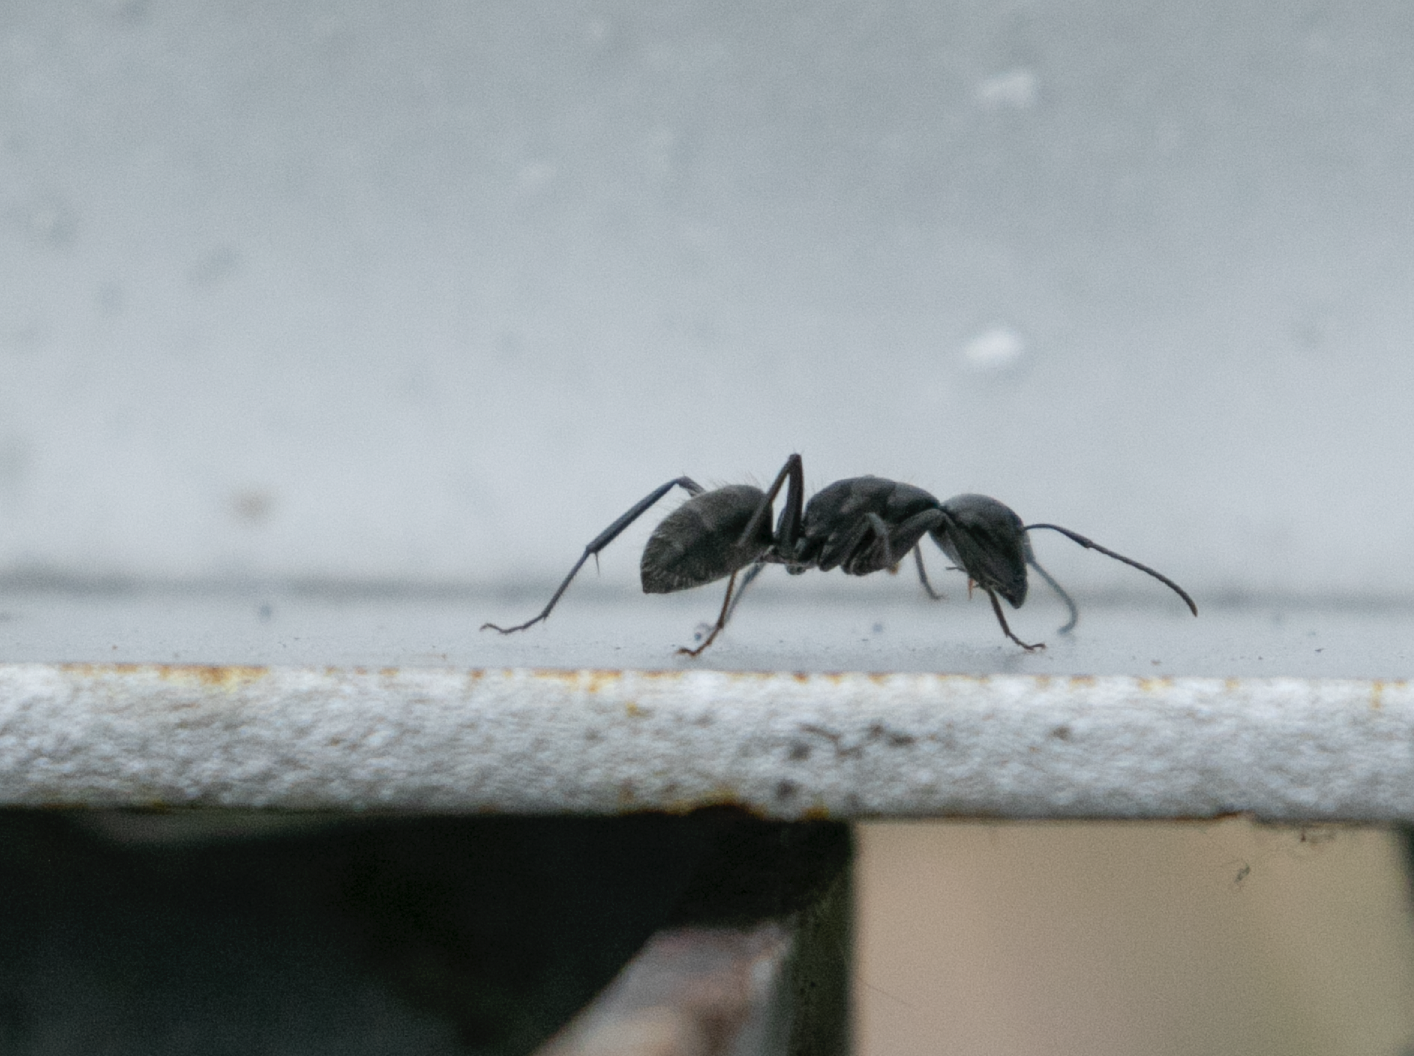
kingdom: Animalia
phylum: Arthropoda
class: Insecta
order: Hymenoptera
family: Formicidae
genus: Camponotus
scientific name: Camponotus vagus
